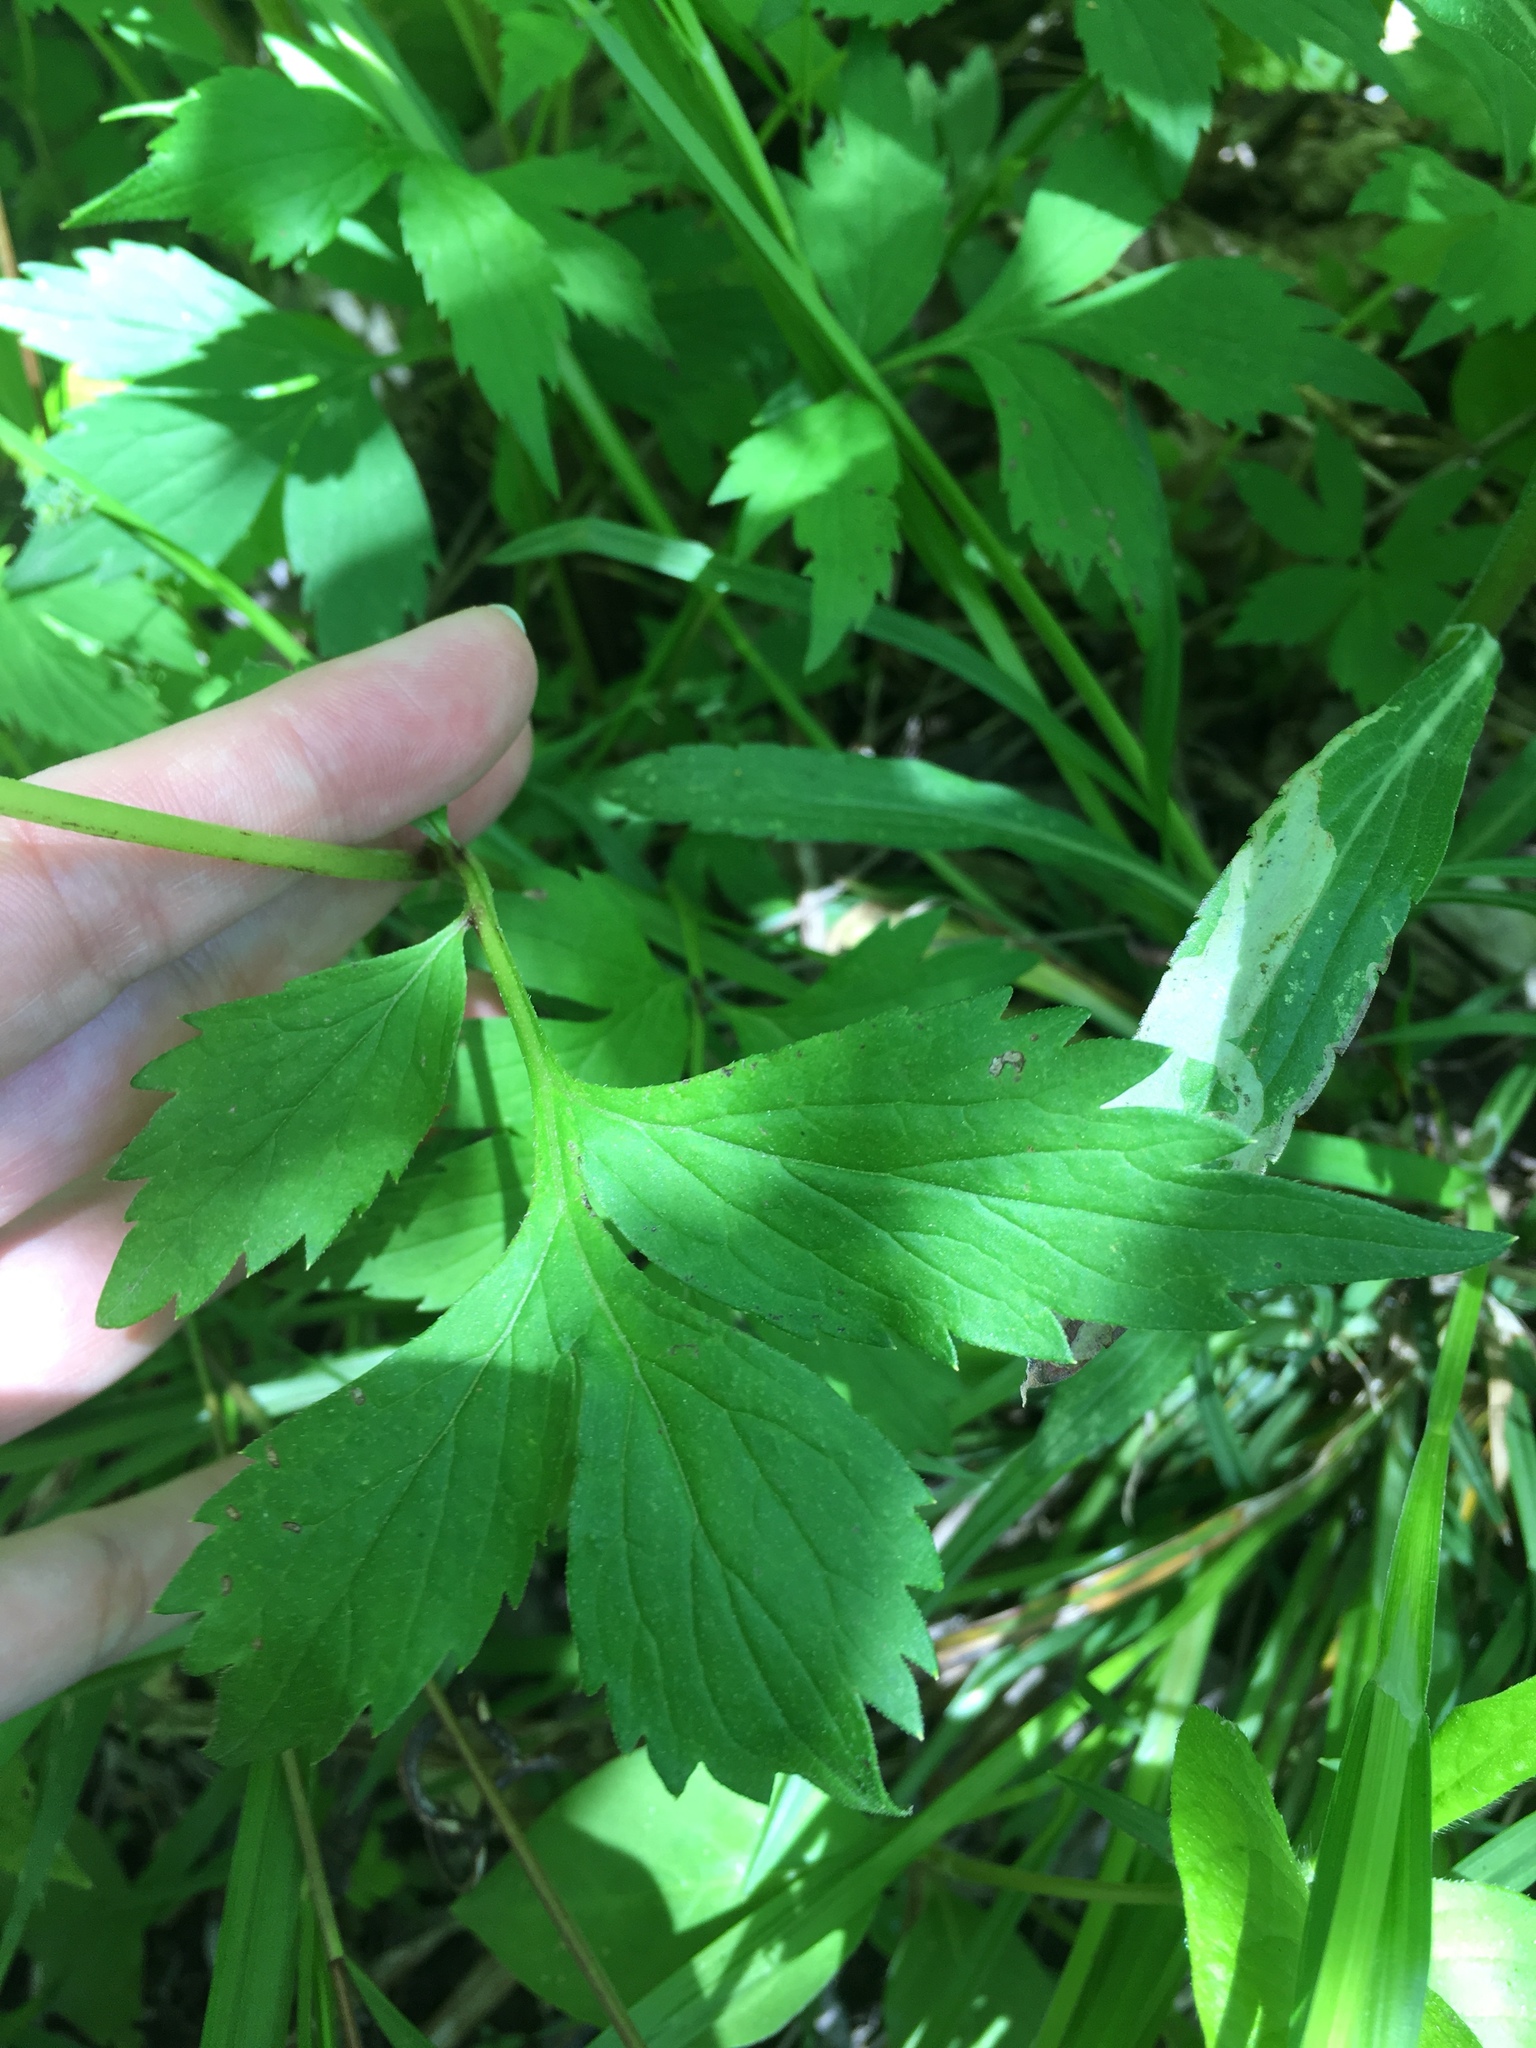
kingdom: Plantae
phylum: Tracheophyta
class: Magnoliopsida
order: Boraginales
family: Hydrophyllaceae
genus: Hydrophyllum
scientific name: Hydrophyllum virginianum
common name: Virginia waterleaf
